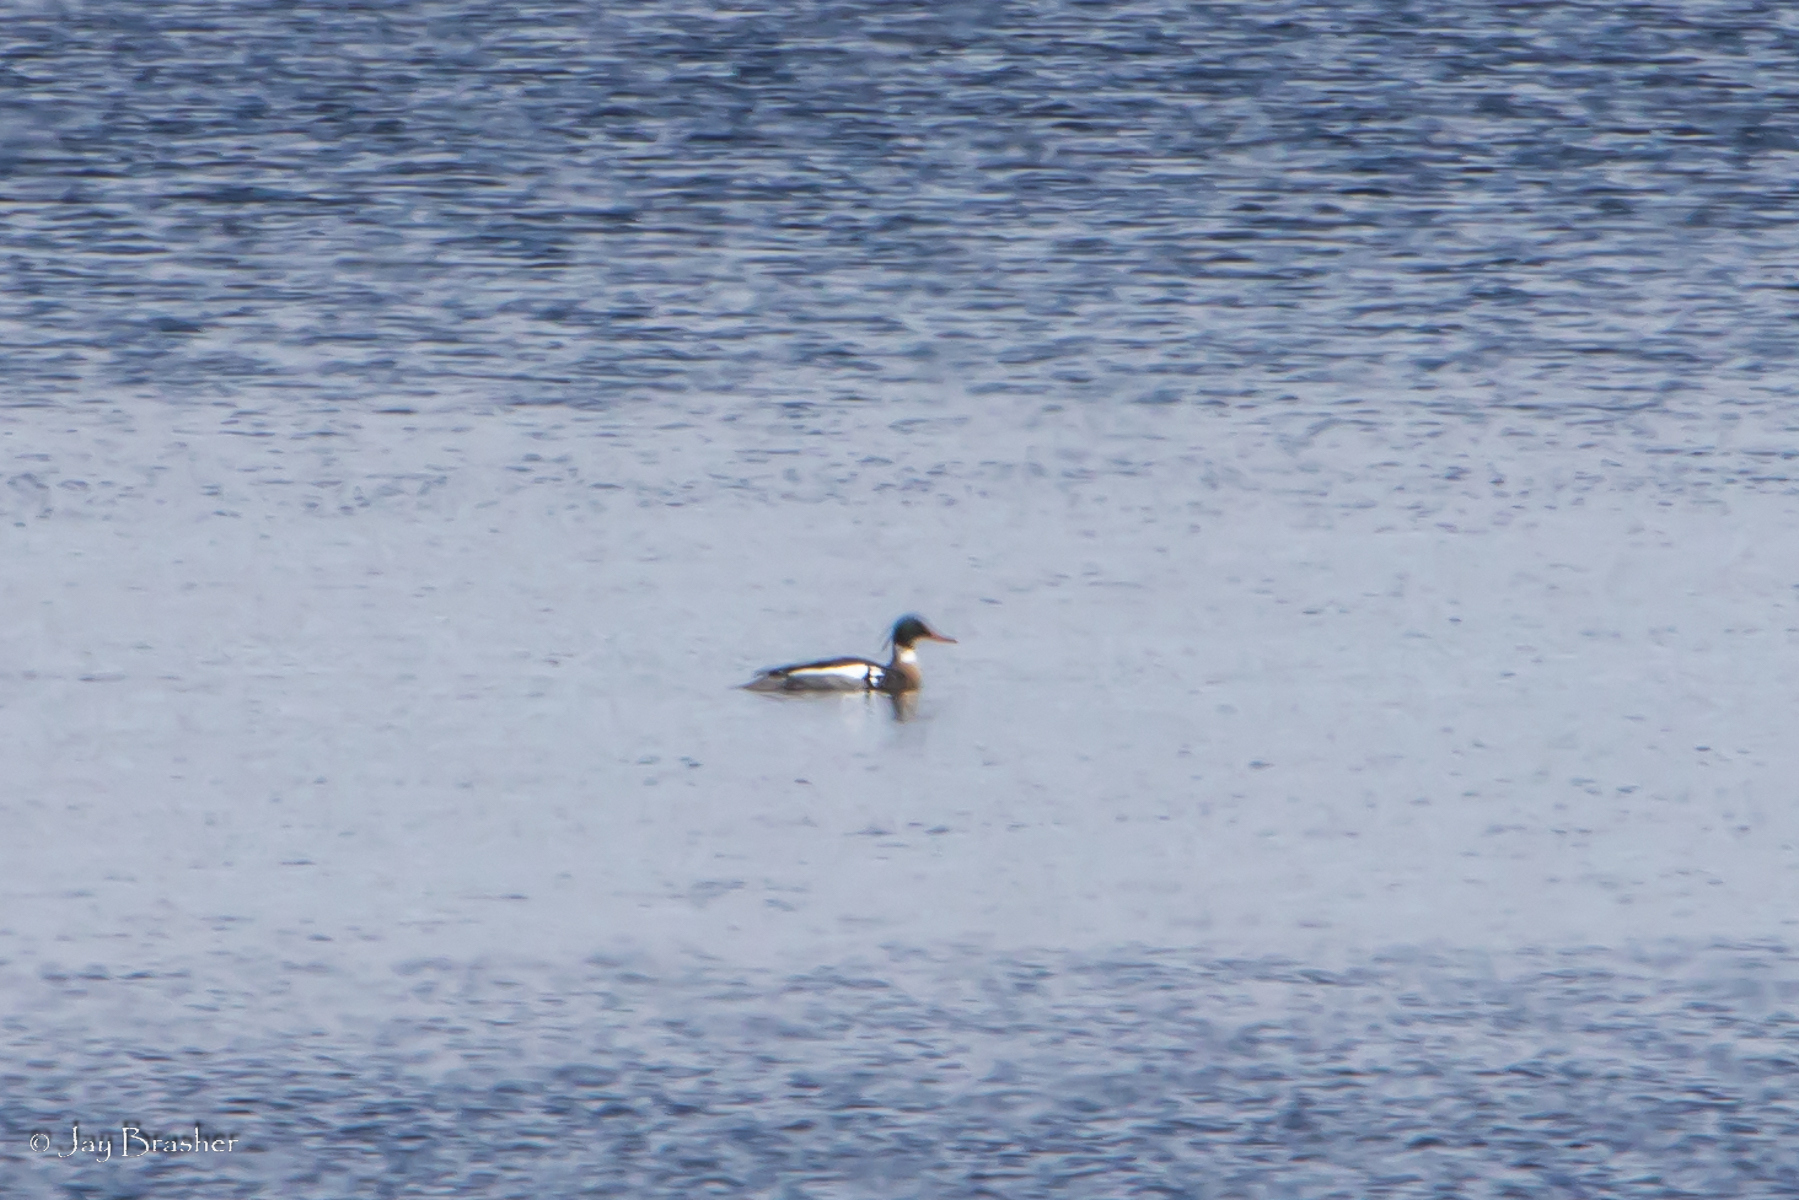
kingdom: Animalia
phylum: Chordata
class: Aves
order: Anseriformes
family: Anatidae
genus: Mergus
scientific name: Mergus serrator
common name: Red-breasted merganser
